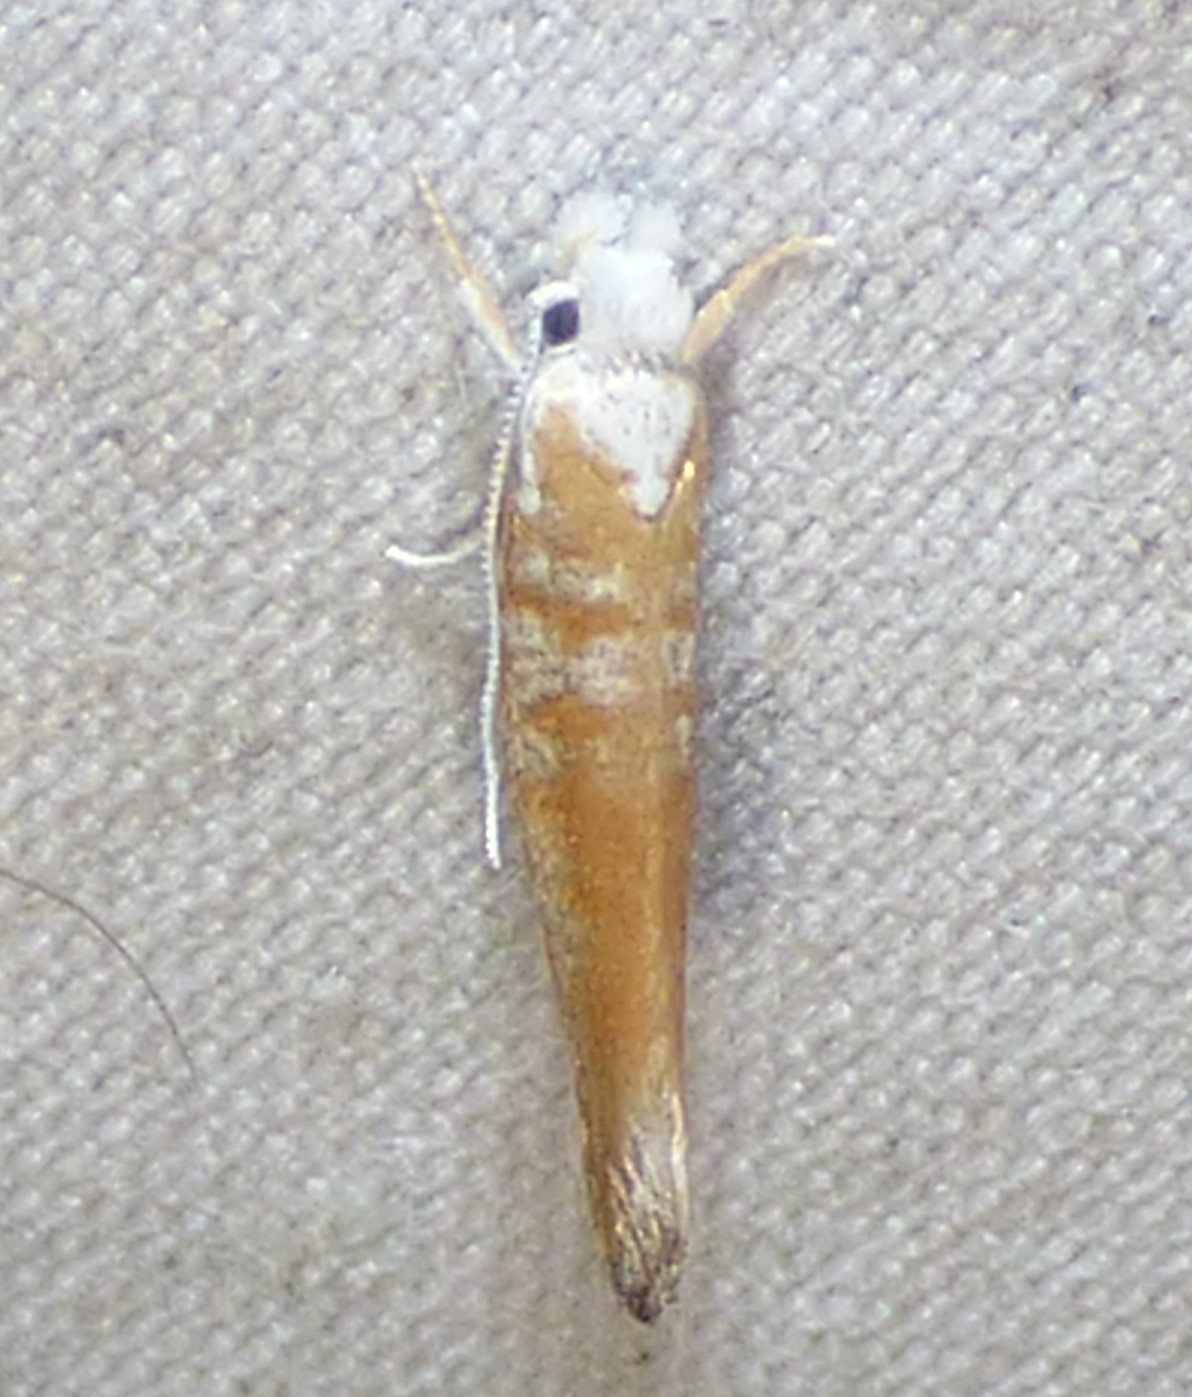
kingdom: Animalia
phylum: Arthropoda
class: Insecta
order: Lepidoptera
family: Yponomeutidae
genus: Zelleria
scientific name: Zelleria retiniella
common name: Brindled zelleria
